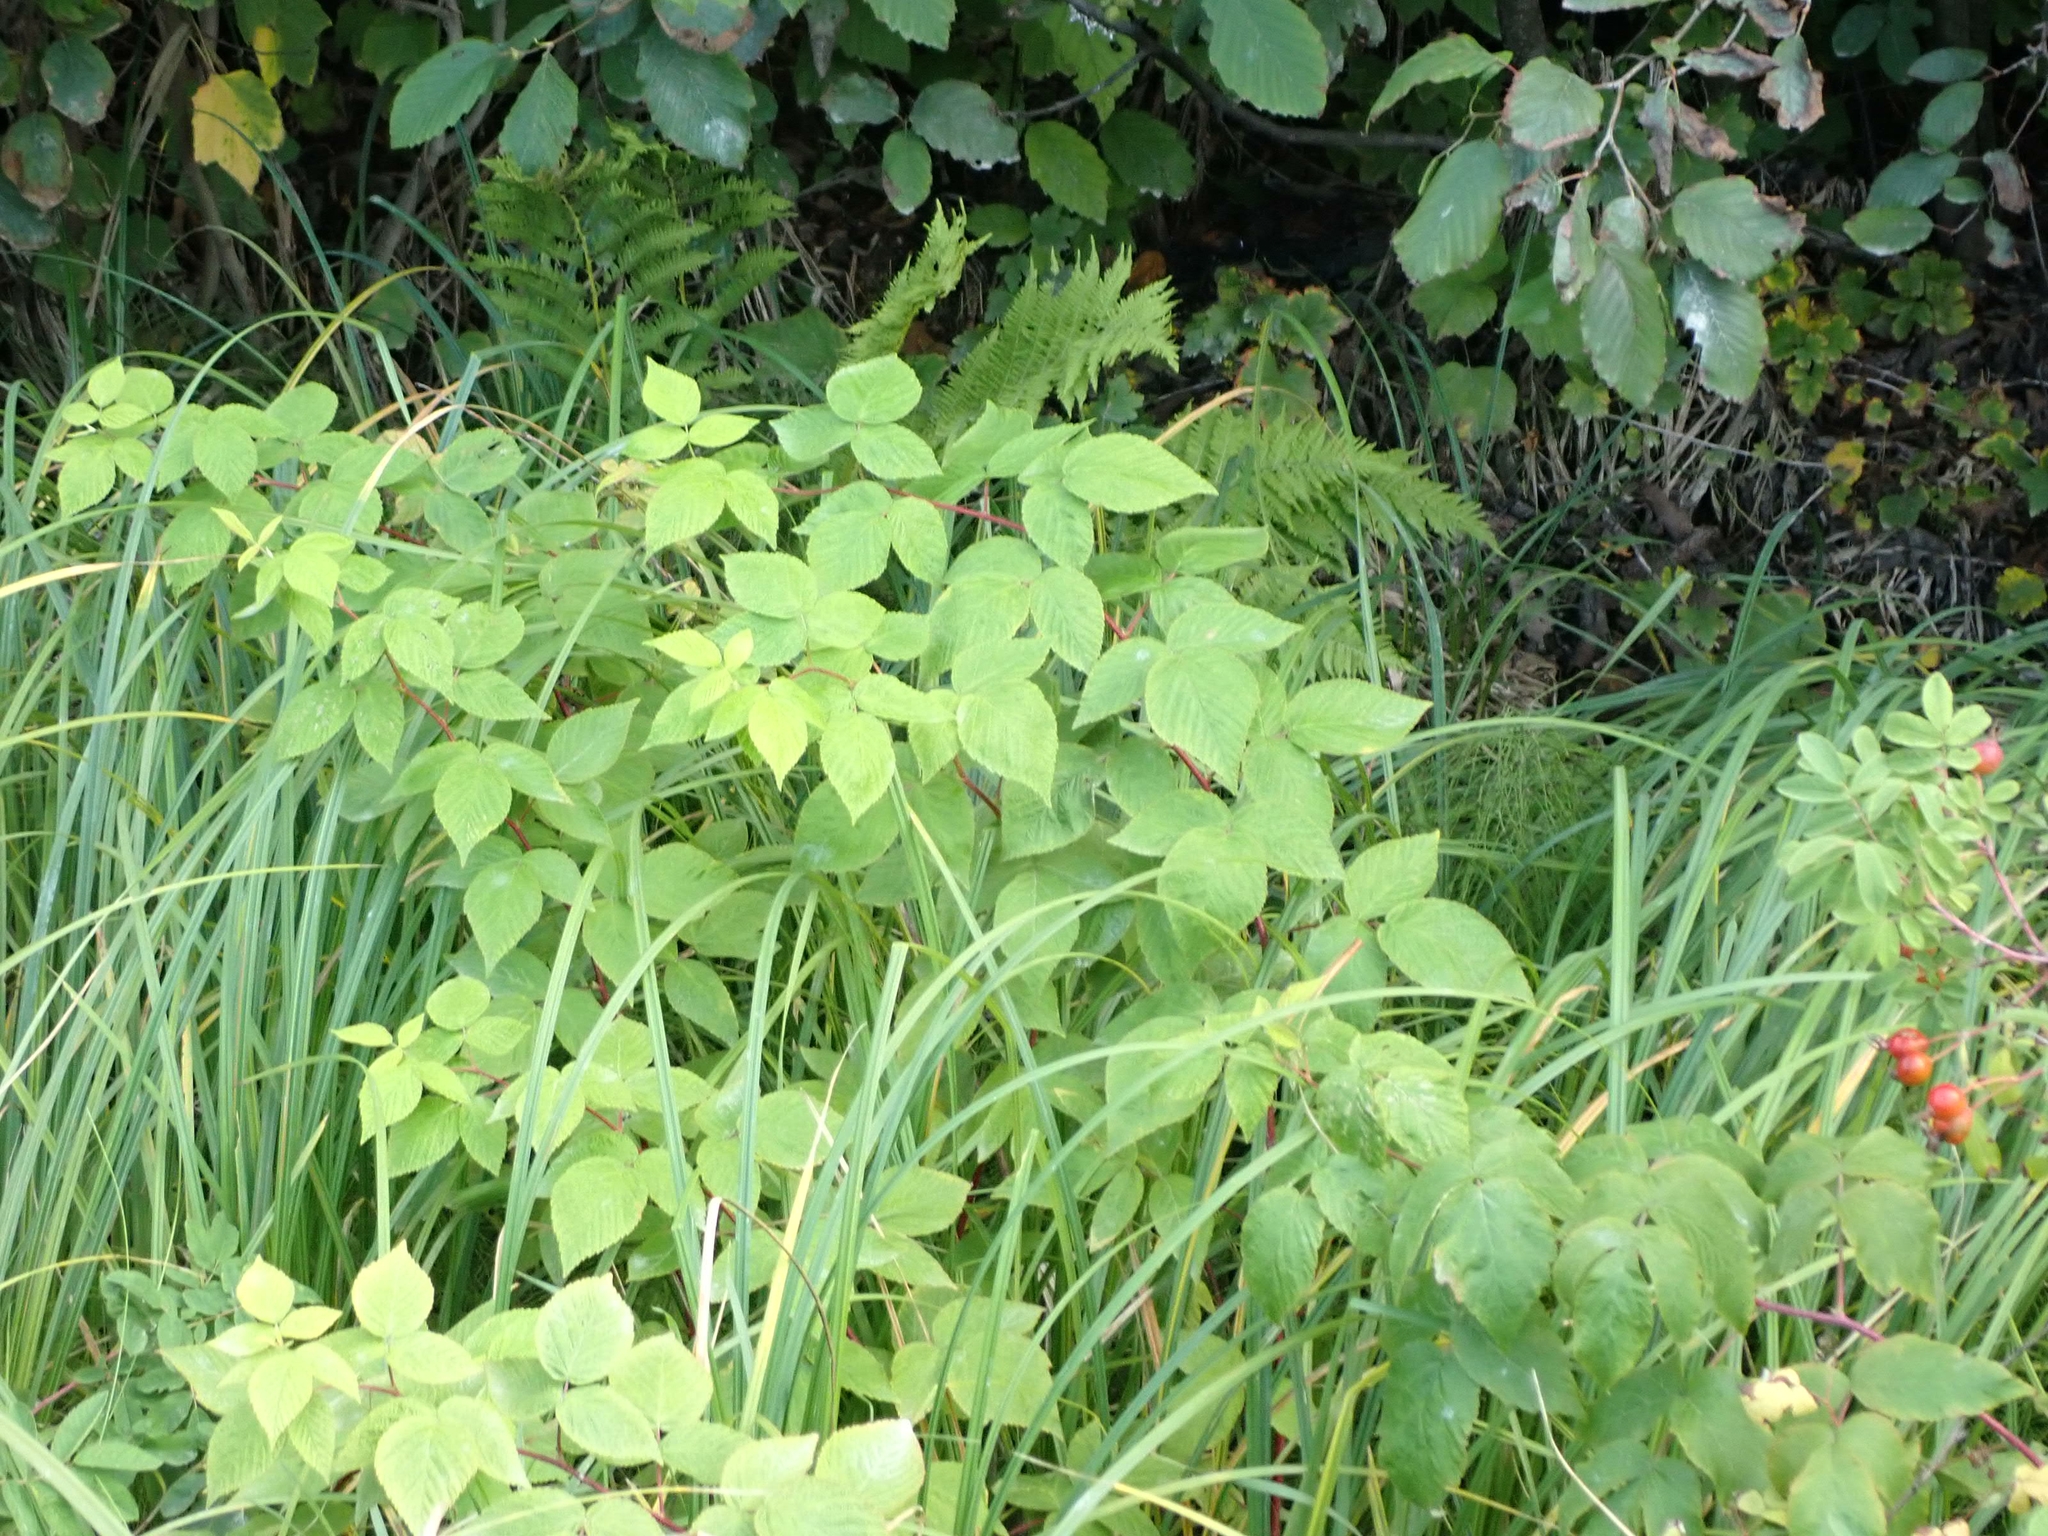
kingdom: Plantae
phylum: Tracheophyta
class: Magnoliopsida
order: Rosales
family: Rosaceae
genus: Rubus
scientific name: Rubus idaeus
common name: Raspberry
